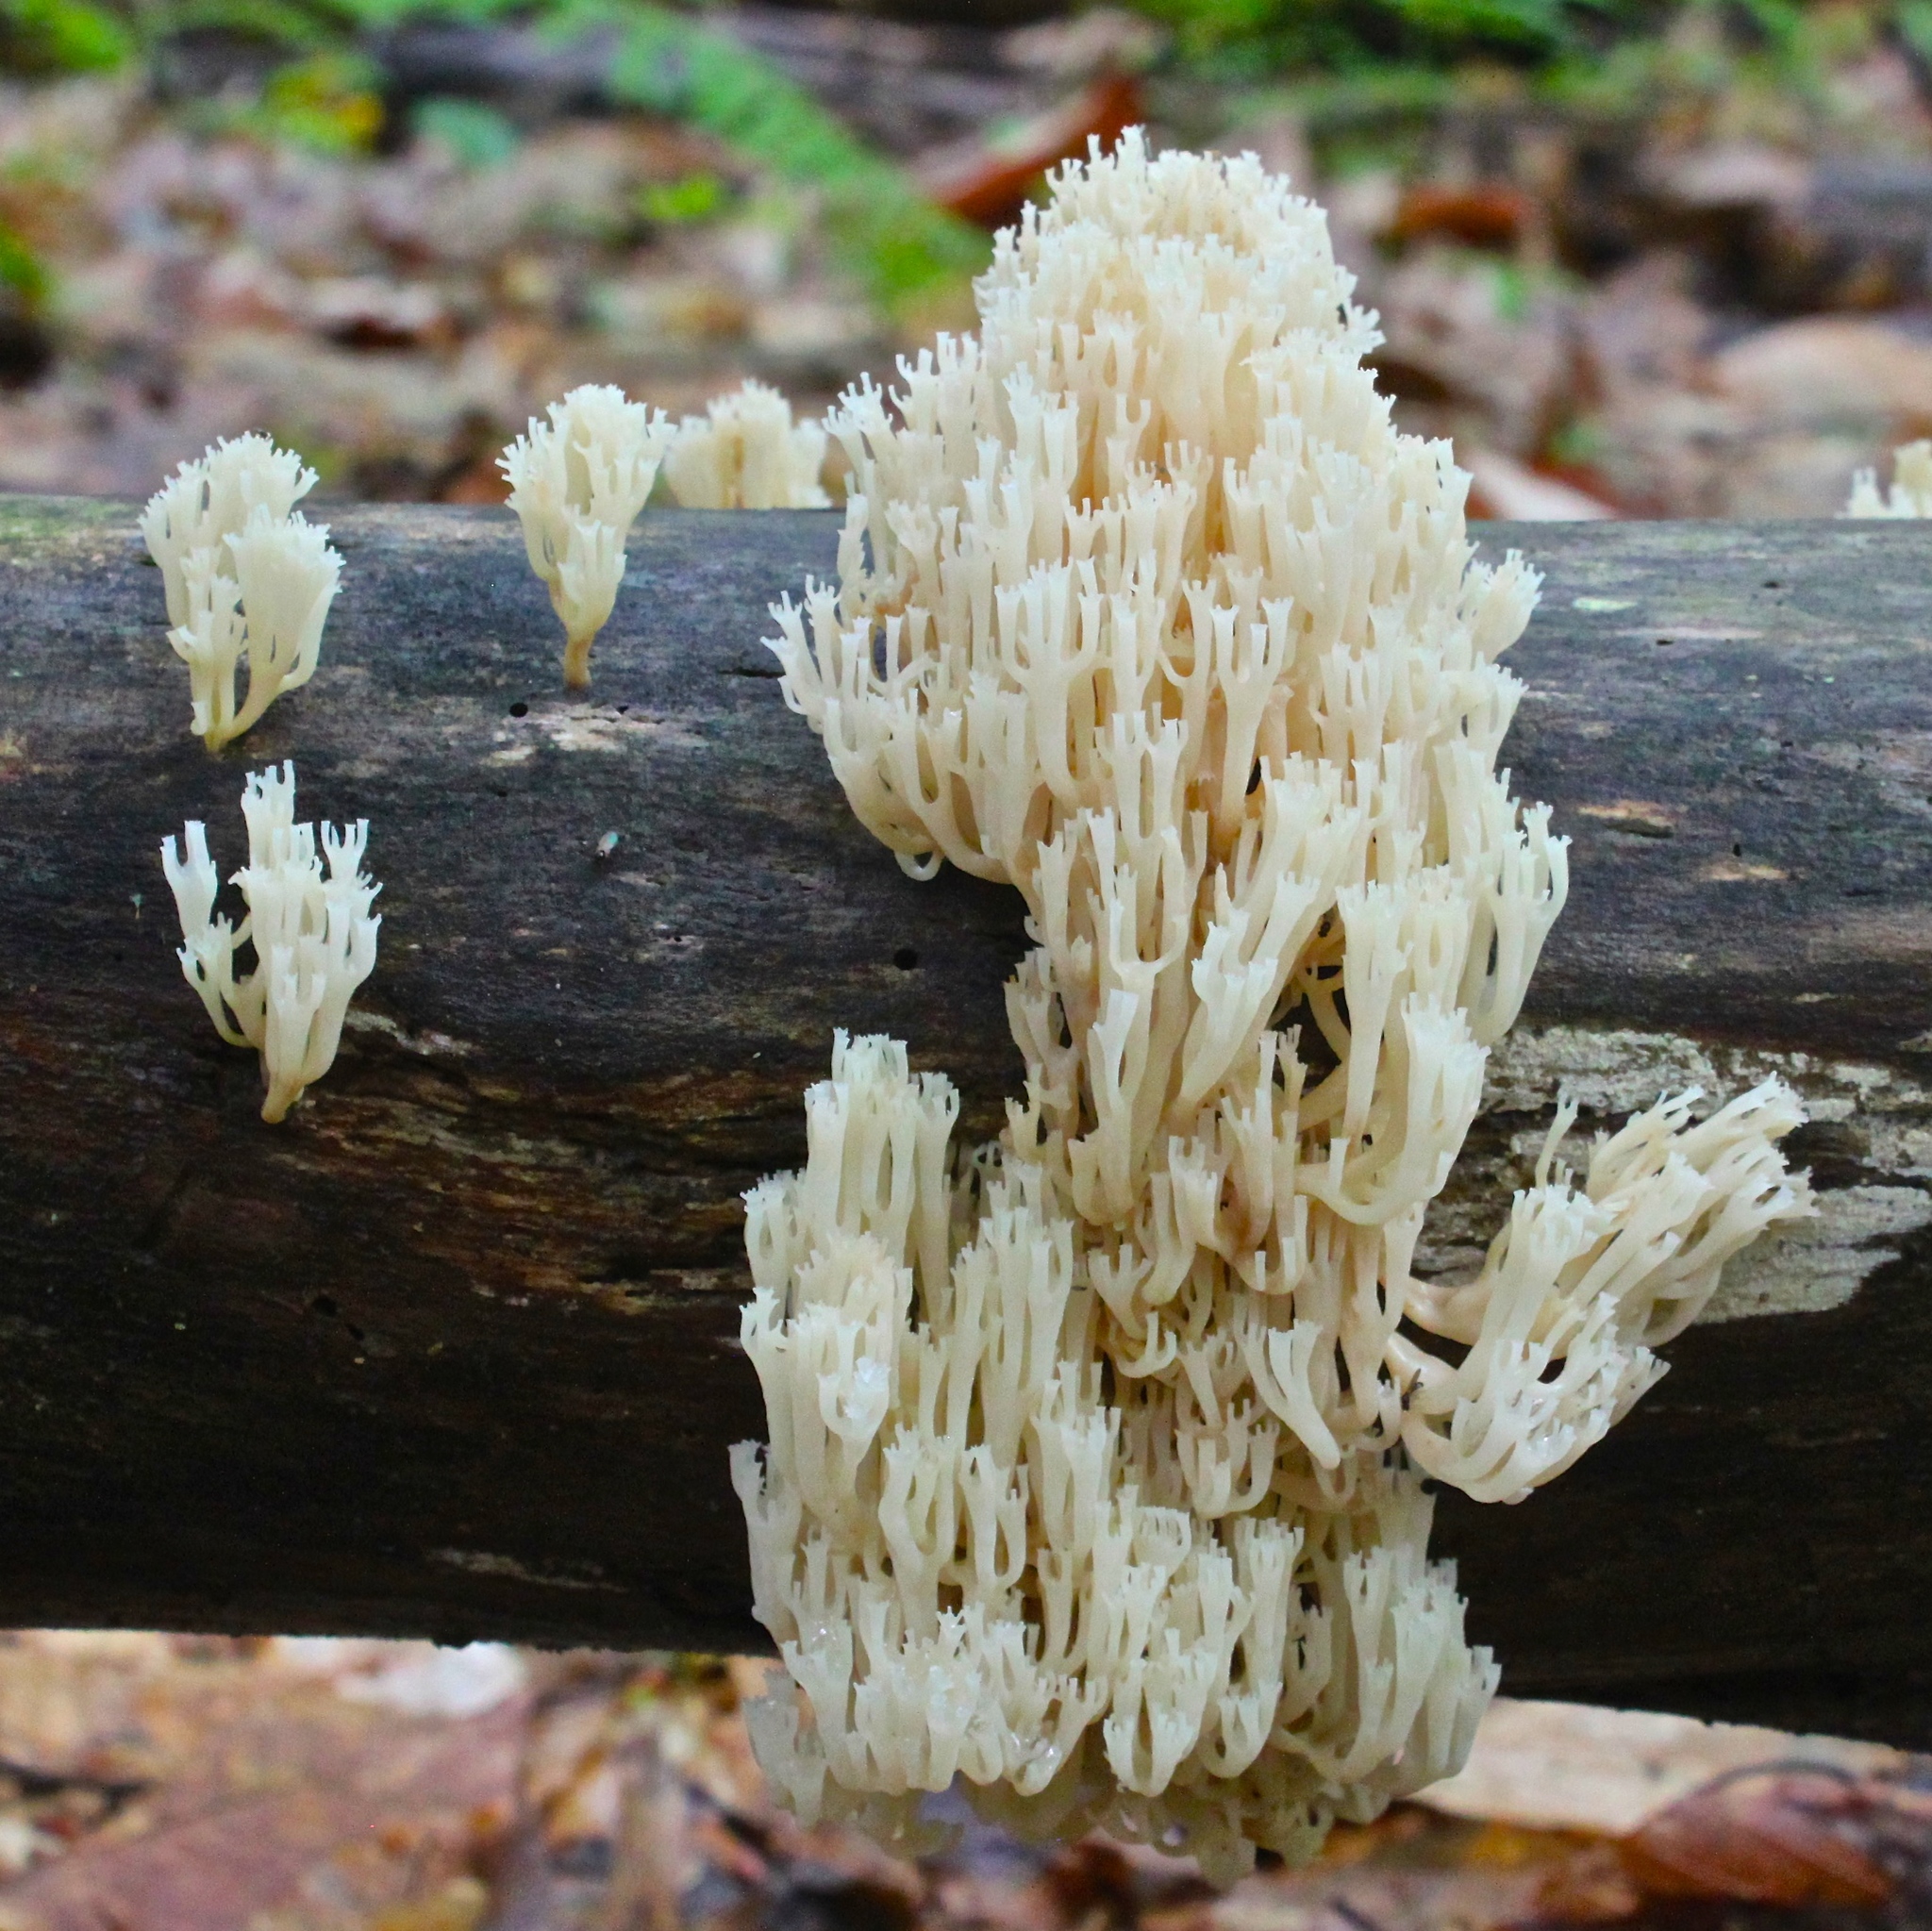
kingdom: Fungi
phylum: Basidiomycota
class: Agaricomycetes
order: Russulales
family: Auriscalpiaceae
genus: Artomyces
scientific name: Artomyces pyxidatus
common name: Crown-tipped coral fungus
